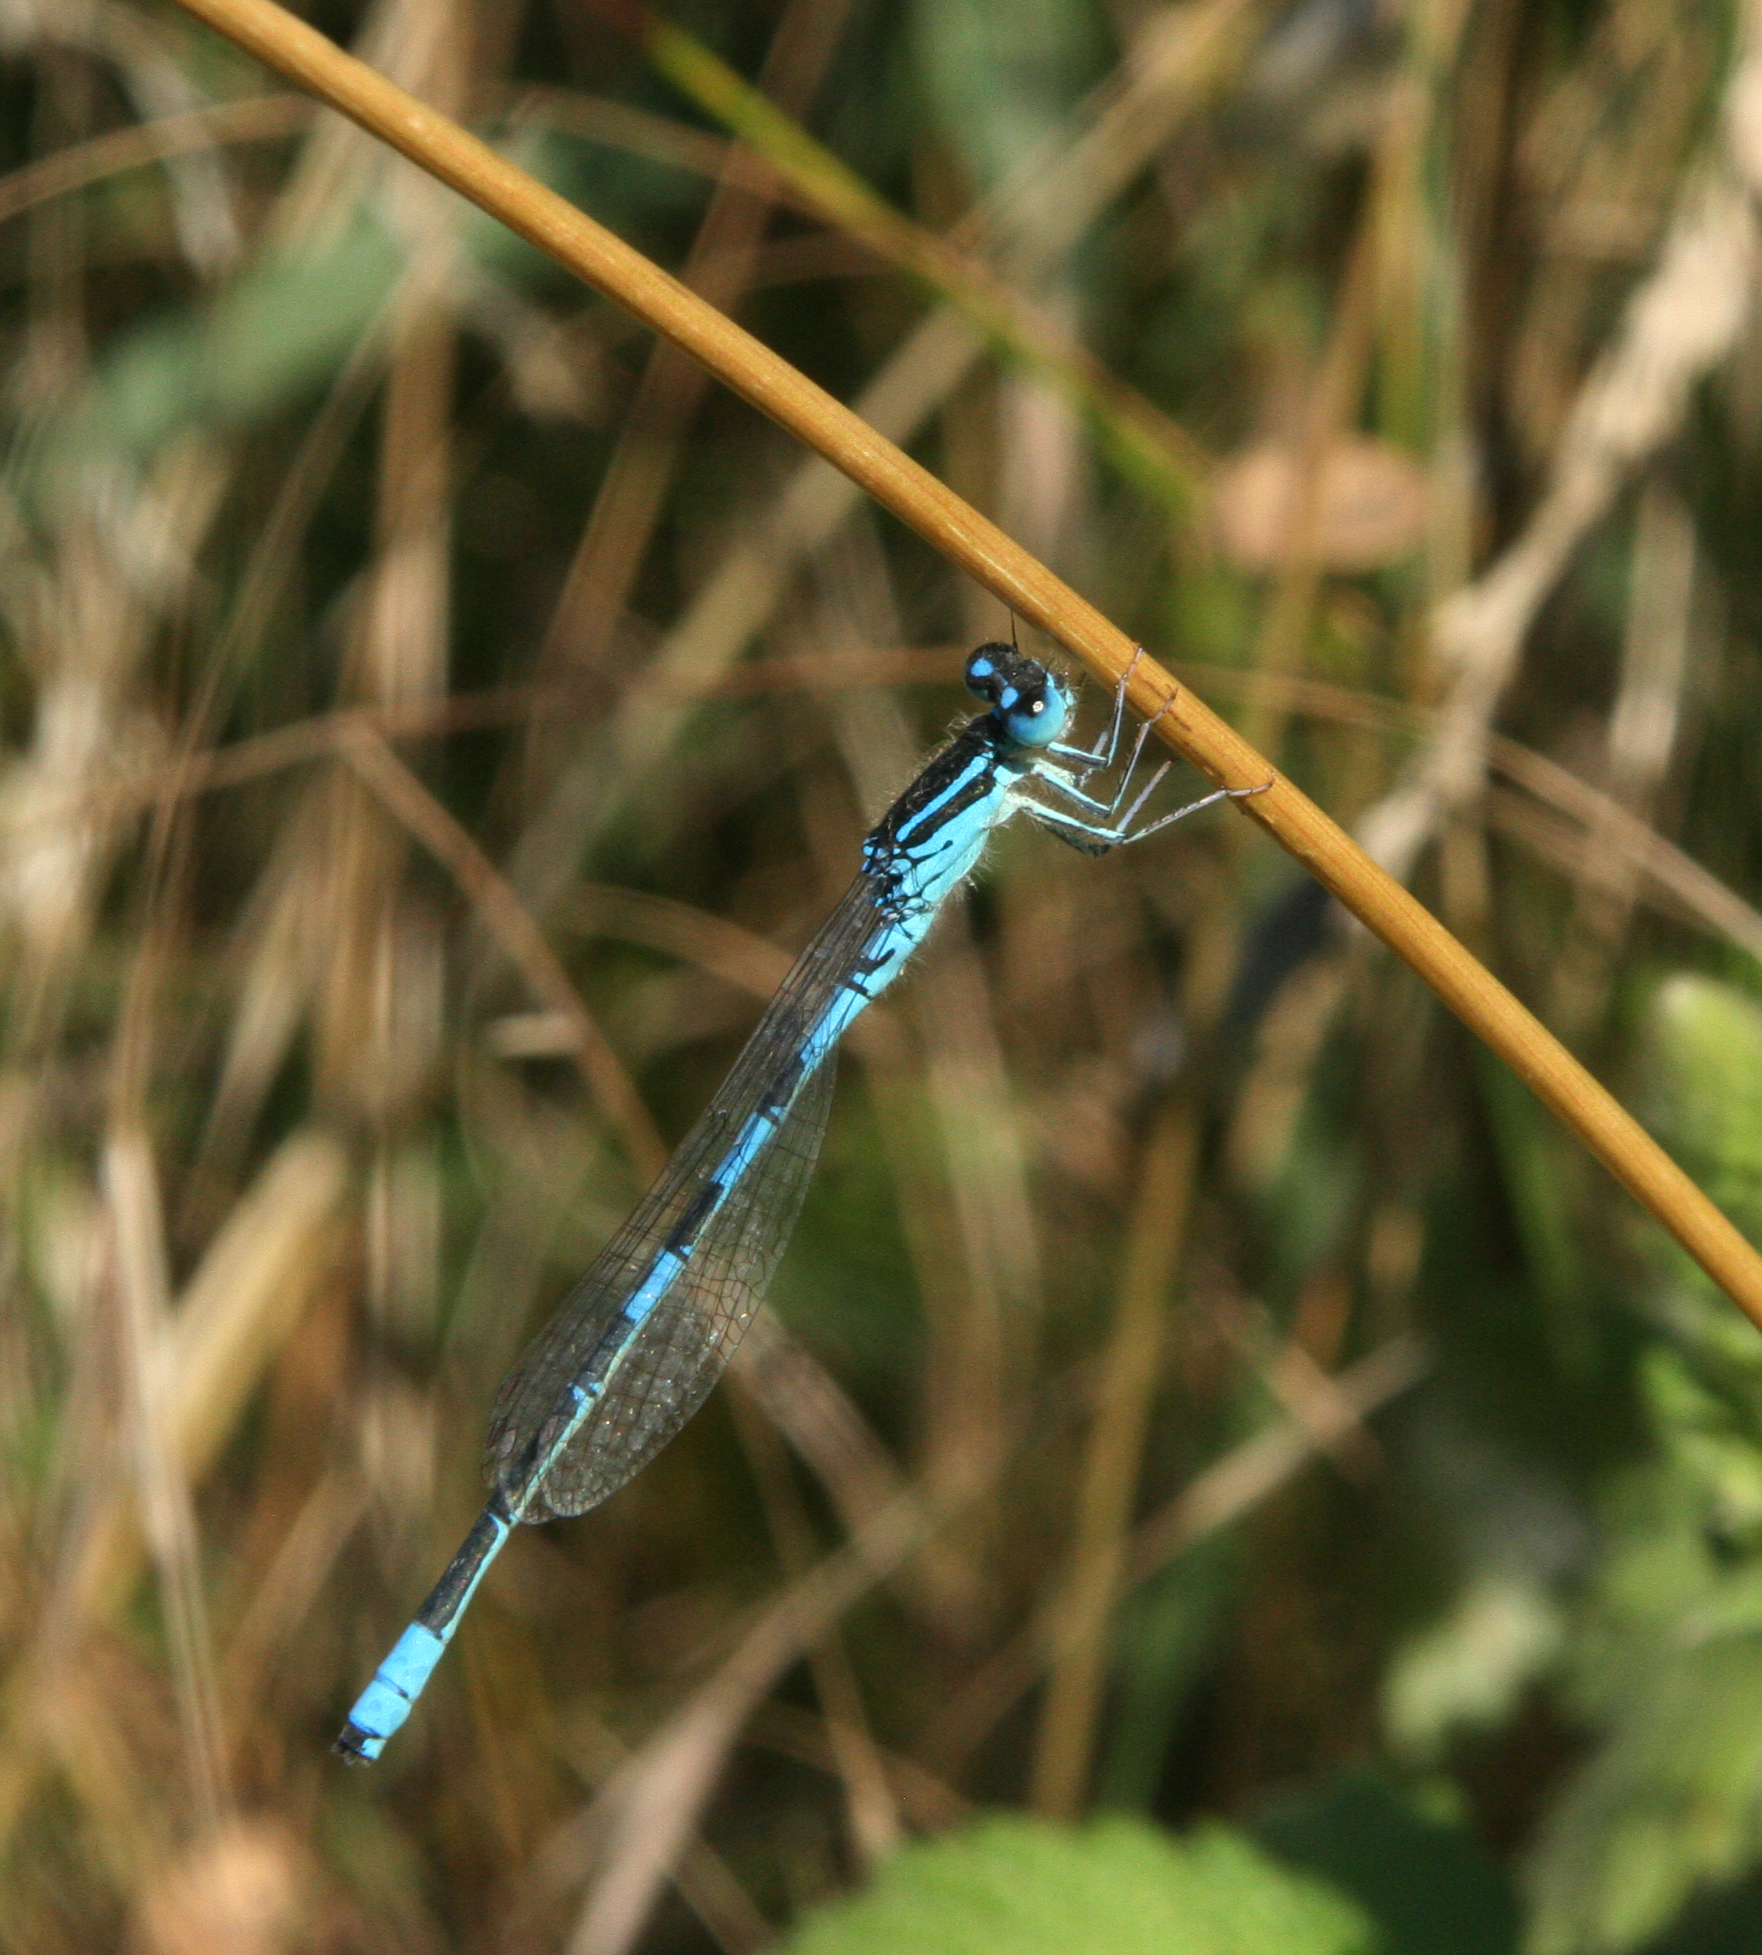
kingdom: Animalia
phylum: Arthropoda
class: Insecta
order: Odonata
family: Coenagrionidae
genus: Coenagrion
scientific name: Coenagrion scitulum
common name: Dainty bluet
